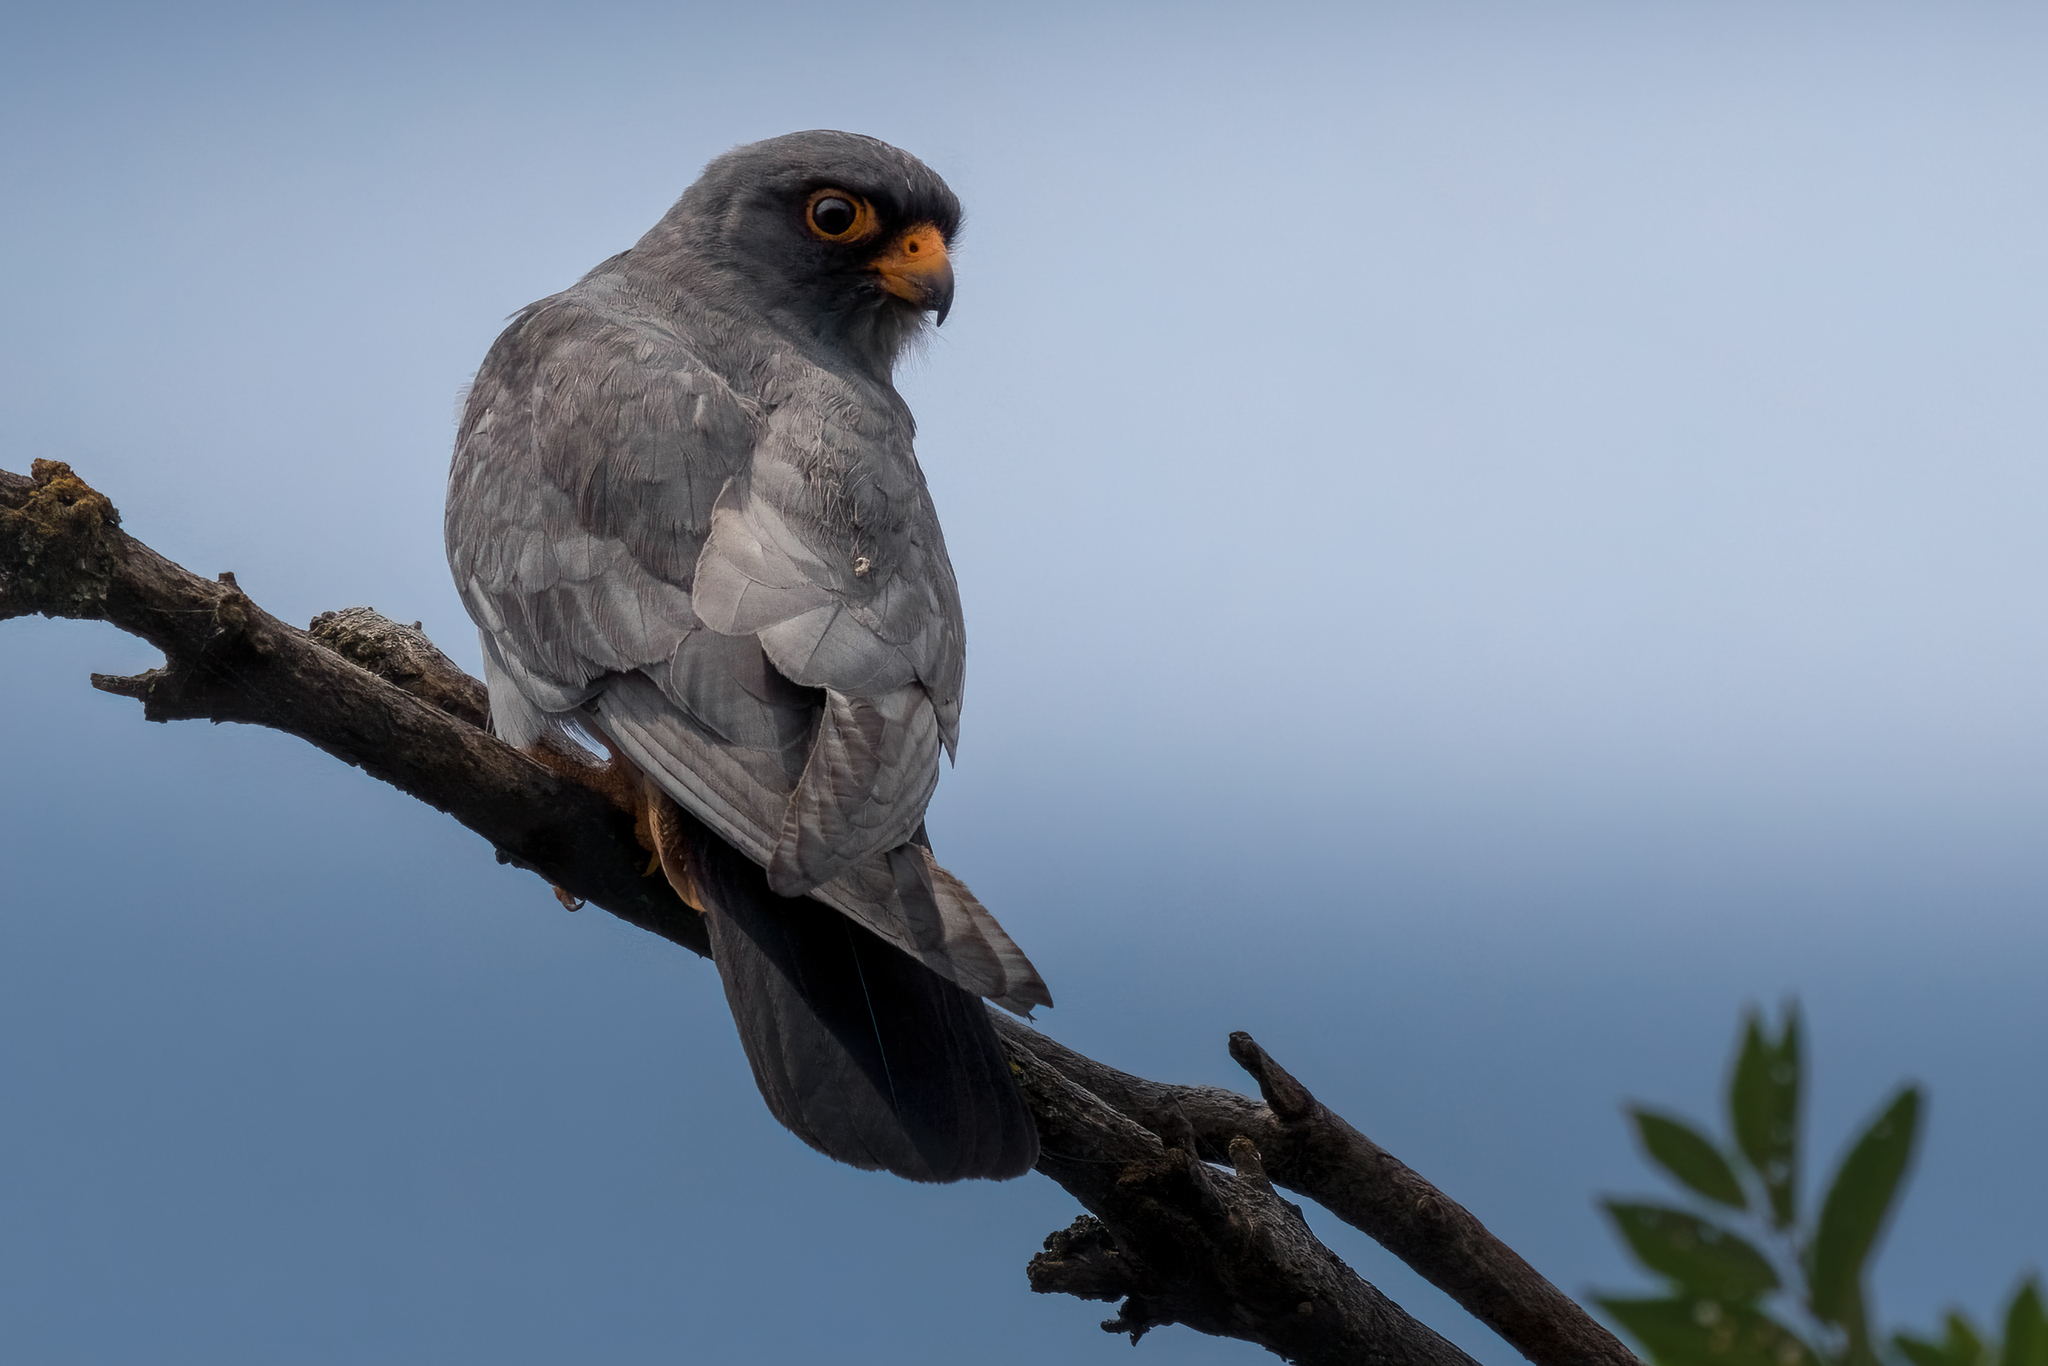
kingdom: Animalia
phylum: Chordata
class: Aves
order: Falconiformes
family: Falconidae
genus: Falco
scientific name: Falco vespertinus
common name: Red-footed falcon
